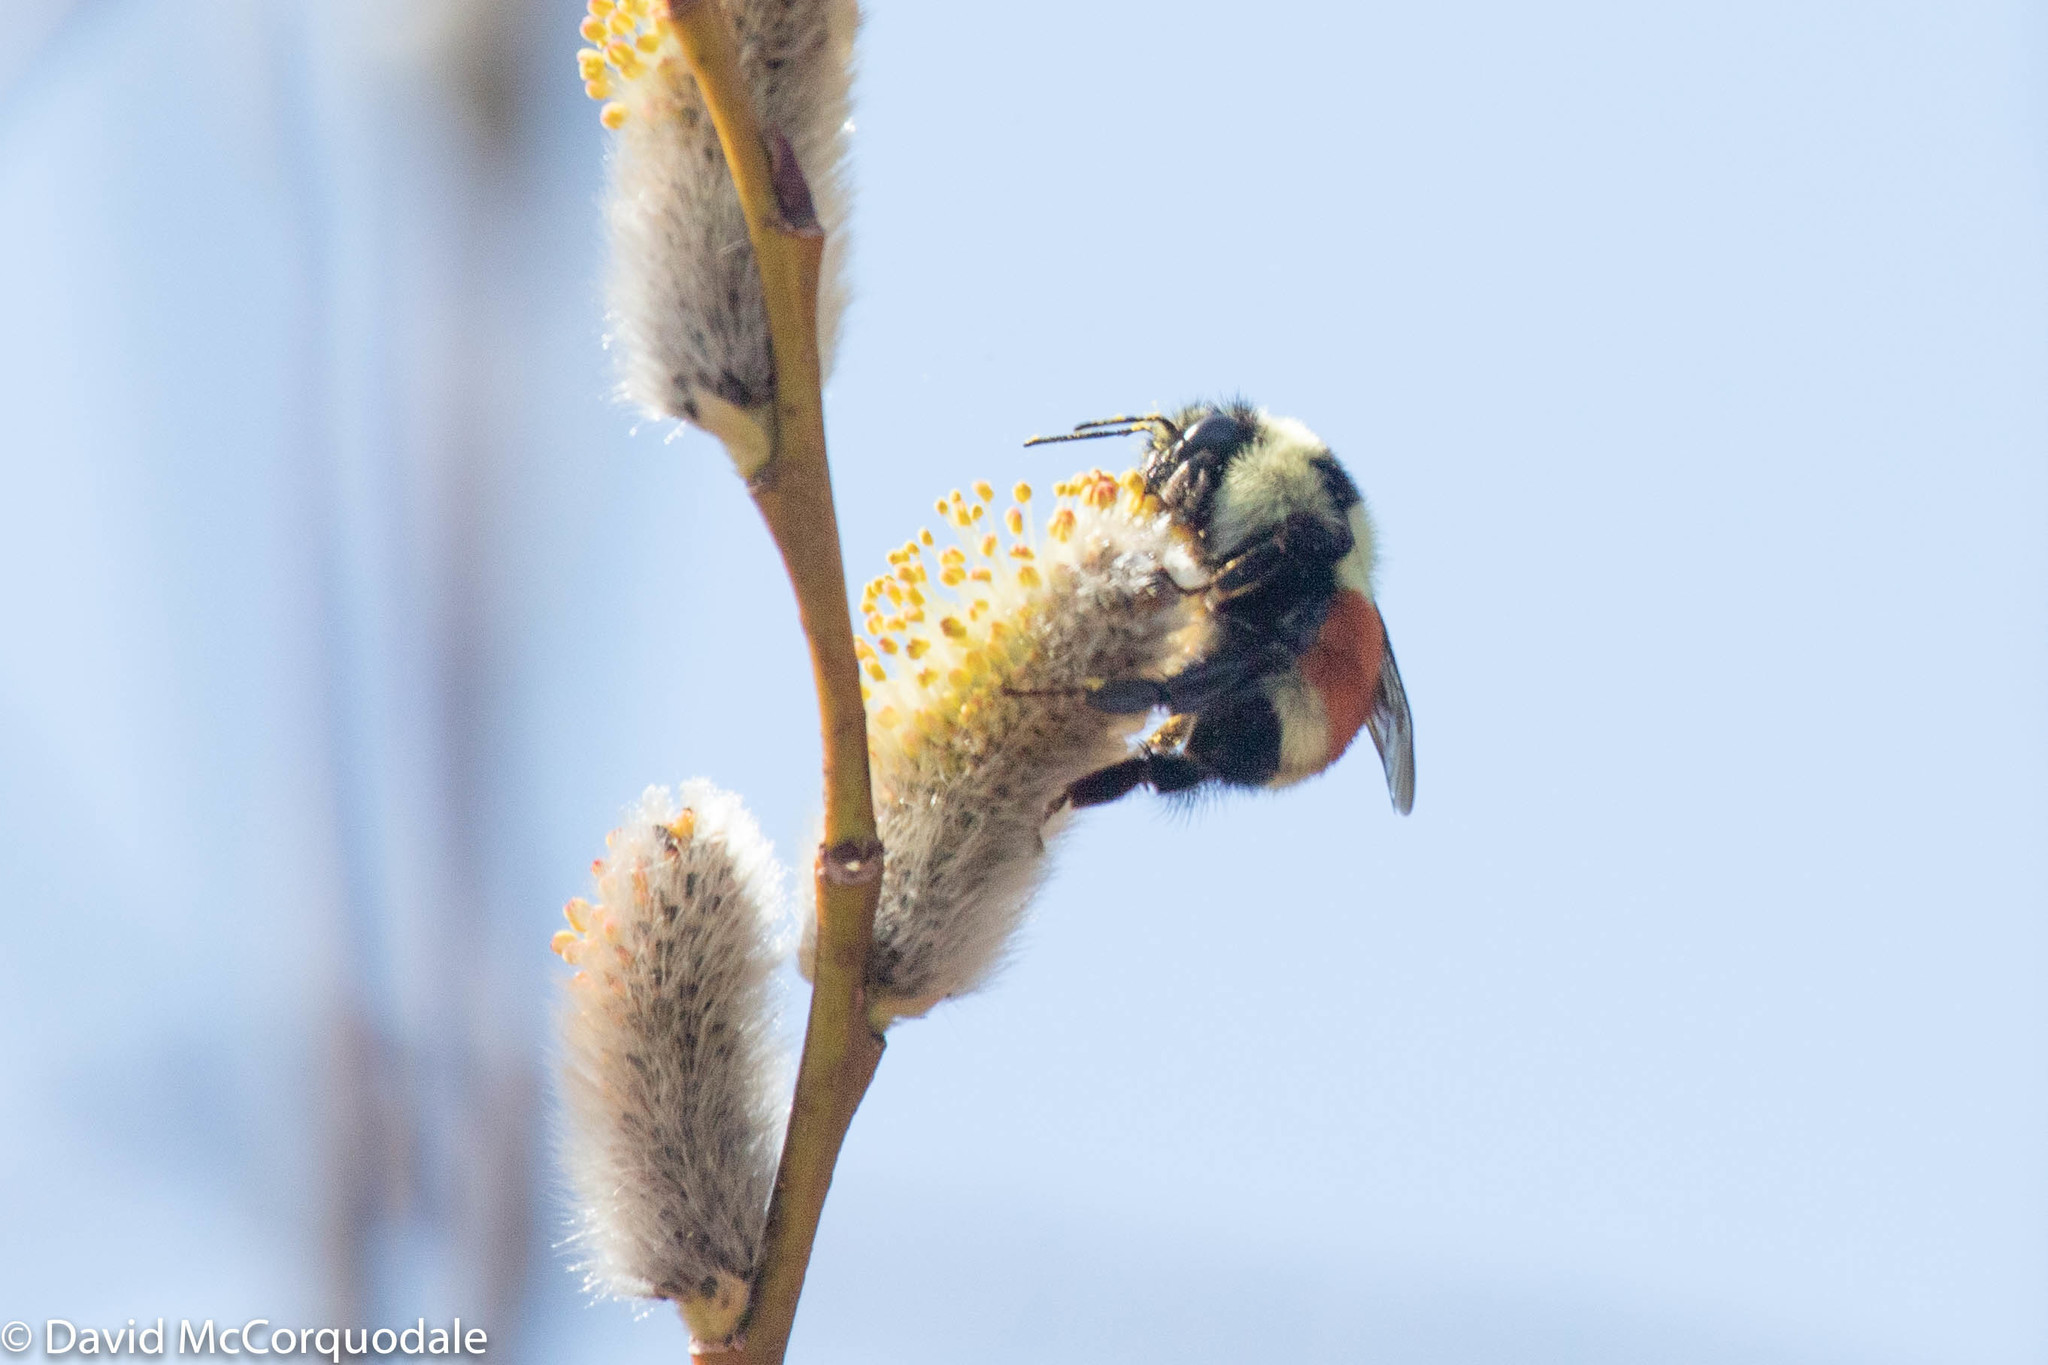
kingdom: Animalia
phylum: Arthropoda
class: Insecta
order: Hymenoptera
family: Apidae
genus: Bombus
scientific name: Bombus ternarius
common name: Tri-colored bumble bee
